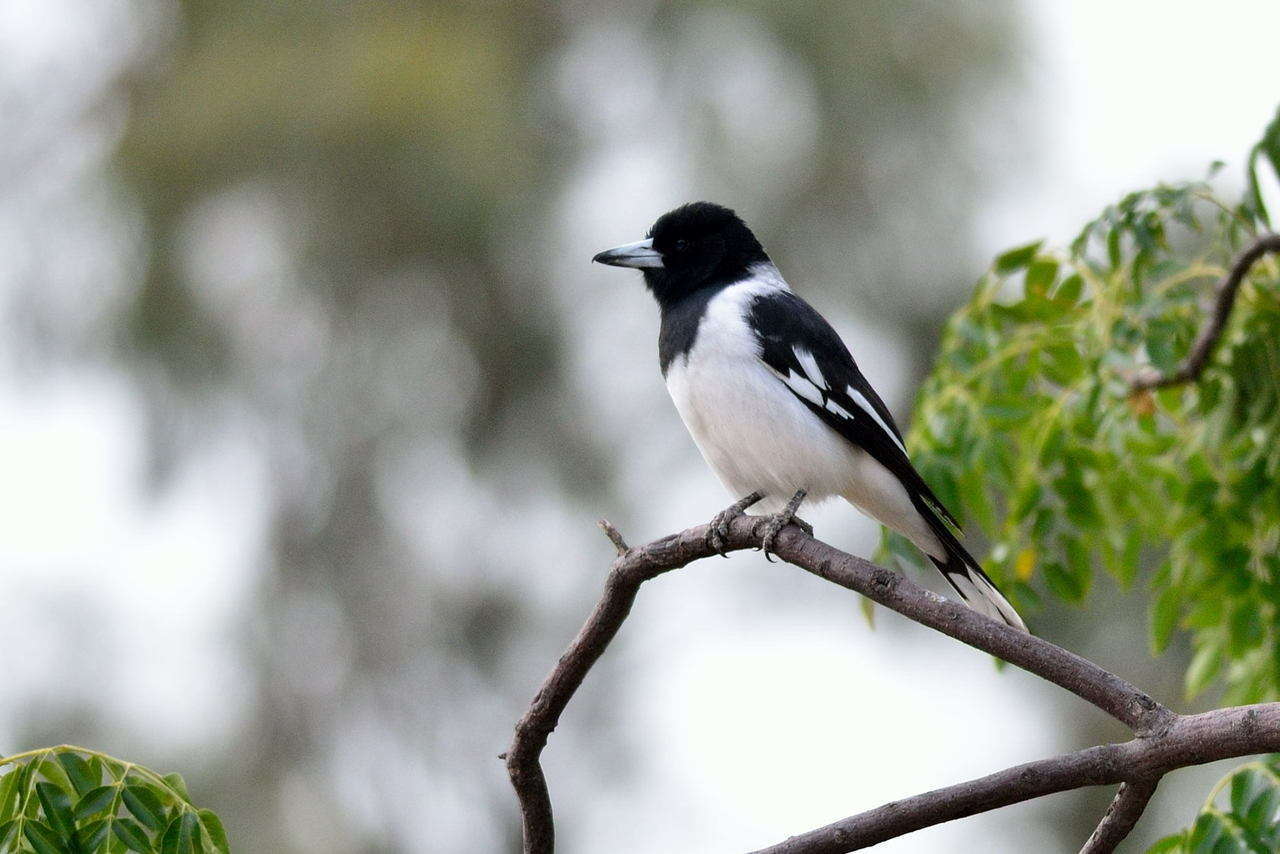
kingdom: Animalia
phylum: Chordata
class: Aves
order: Passeriformes
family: Cracticidae
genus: Cracticus
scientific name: Cracticus nigrogularis
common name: Pied butcherbird
